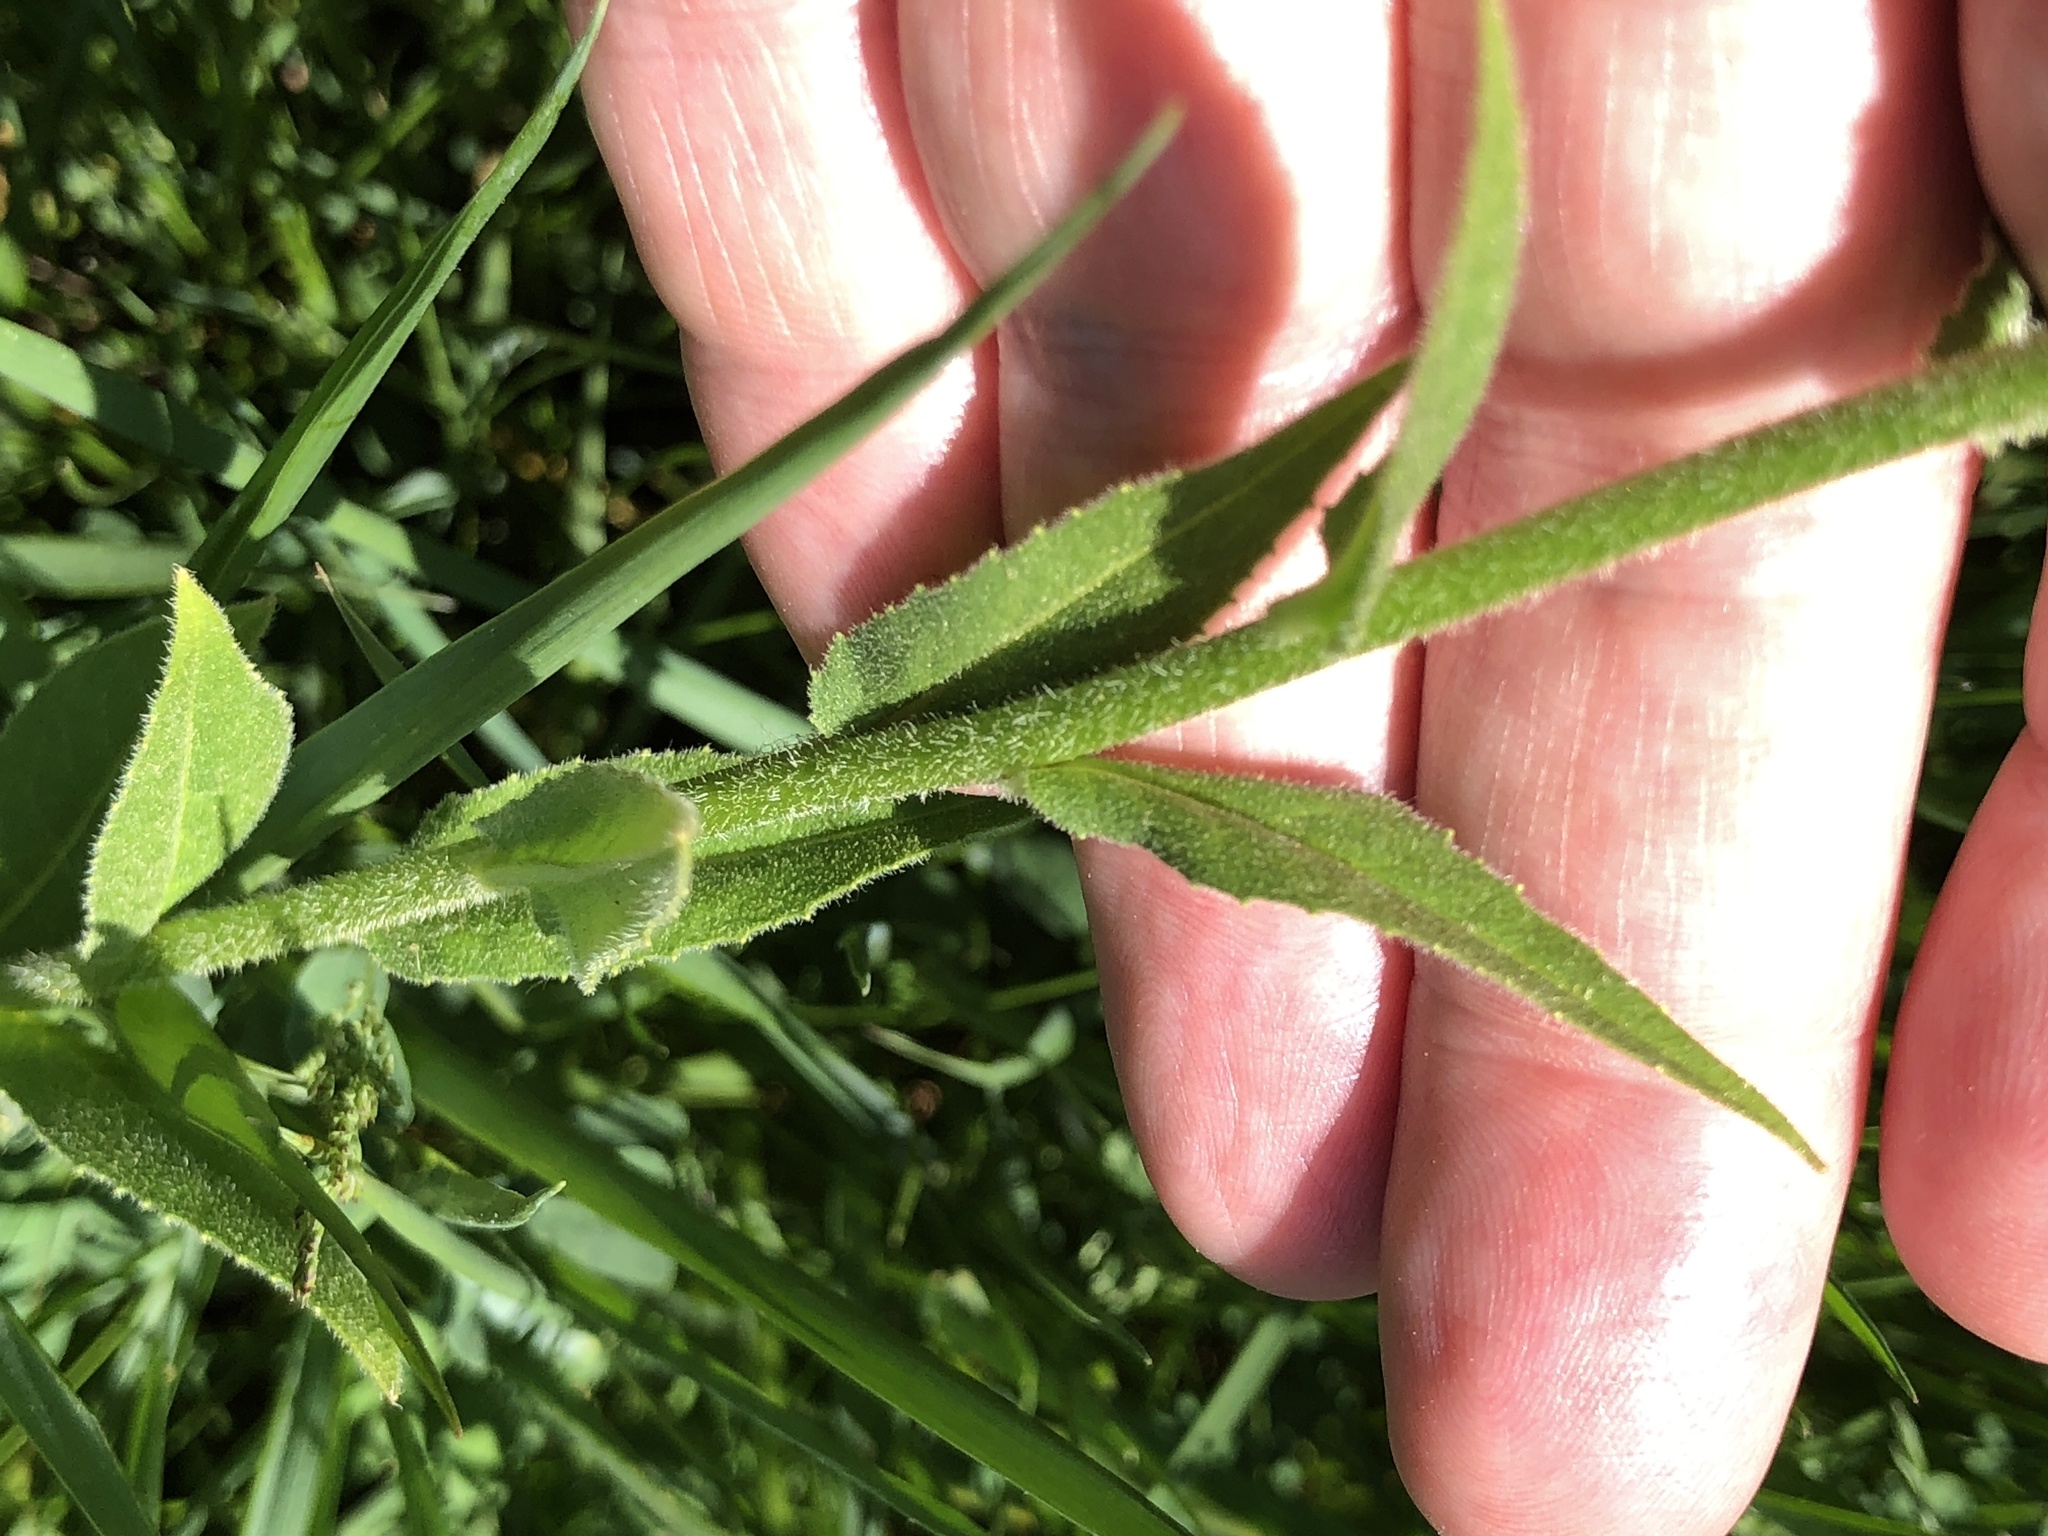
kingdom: Plantae
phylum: Tracheophyta
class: Magnoliopsida
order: Brassicales
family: Brassicaceae
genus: Hesperis
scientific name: Hesperis matronalis
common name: Dame's-violet
